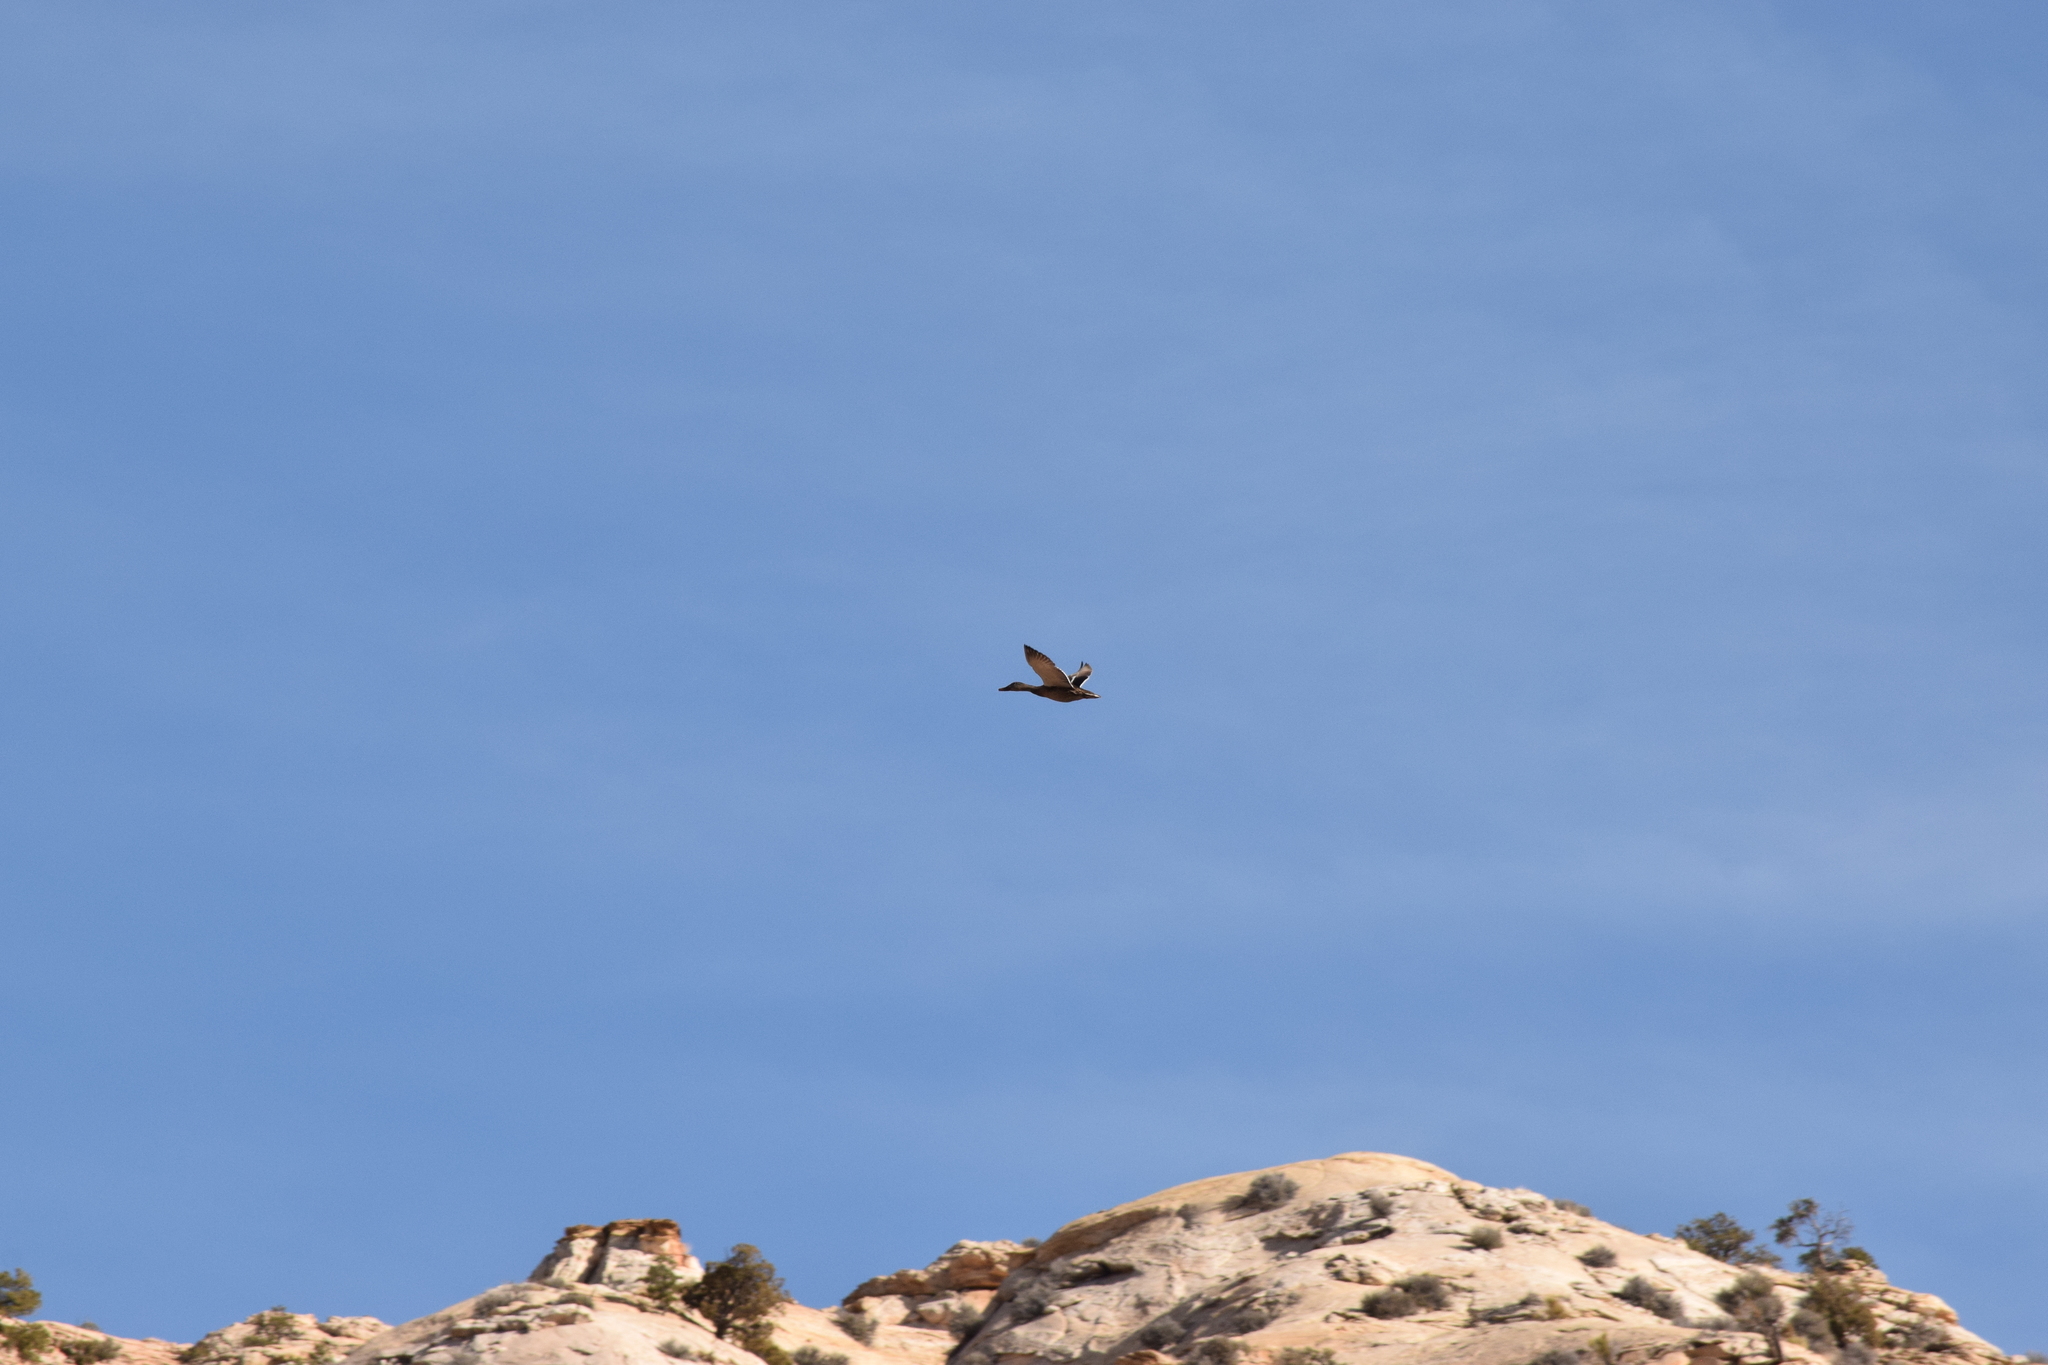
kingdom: Animalia
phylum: Chordata
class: Aves
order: Anseriformes
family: Anatidae
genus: Anas
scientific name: Anas platyrhynchos
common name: Mallard
